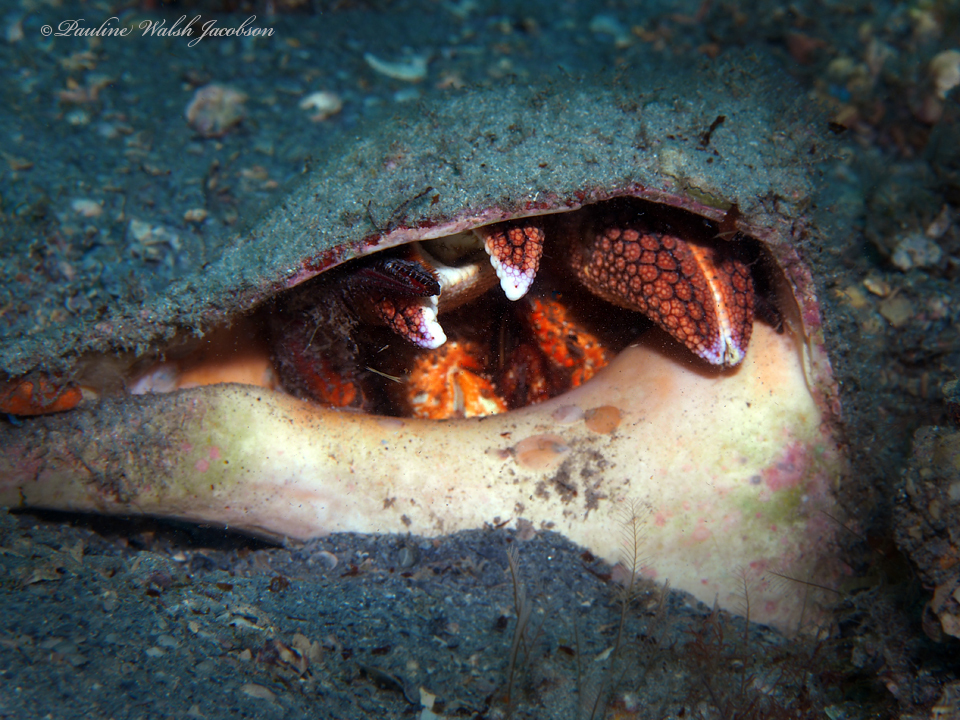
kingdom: Animalia
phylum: Arthropoda
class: Malacostraca
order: Decapoda
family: Diogenidae
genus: Petrochirus
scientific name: Petrochirus diogenes
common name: Giant hermit crab
